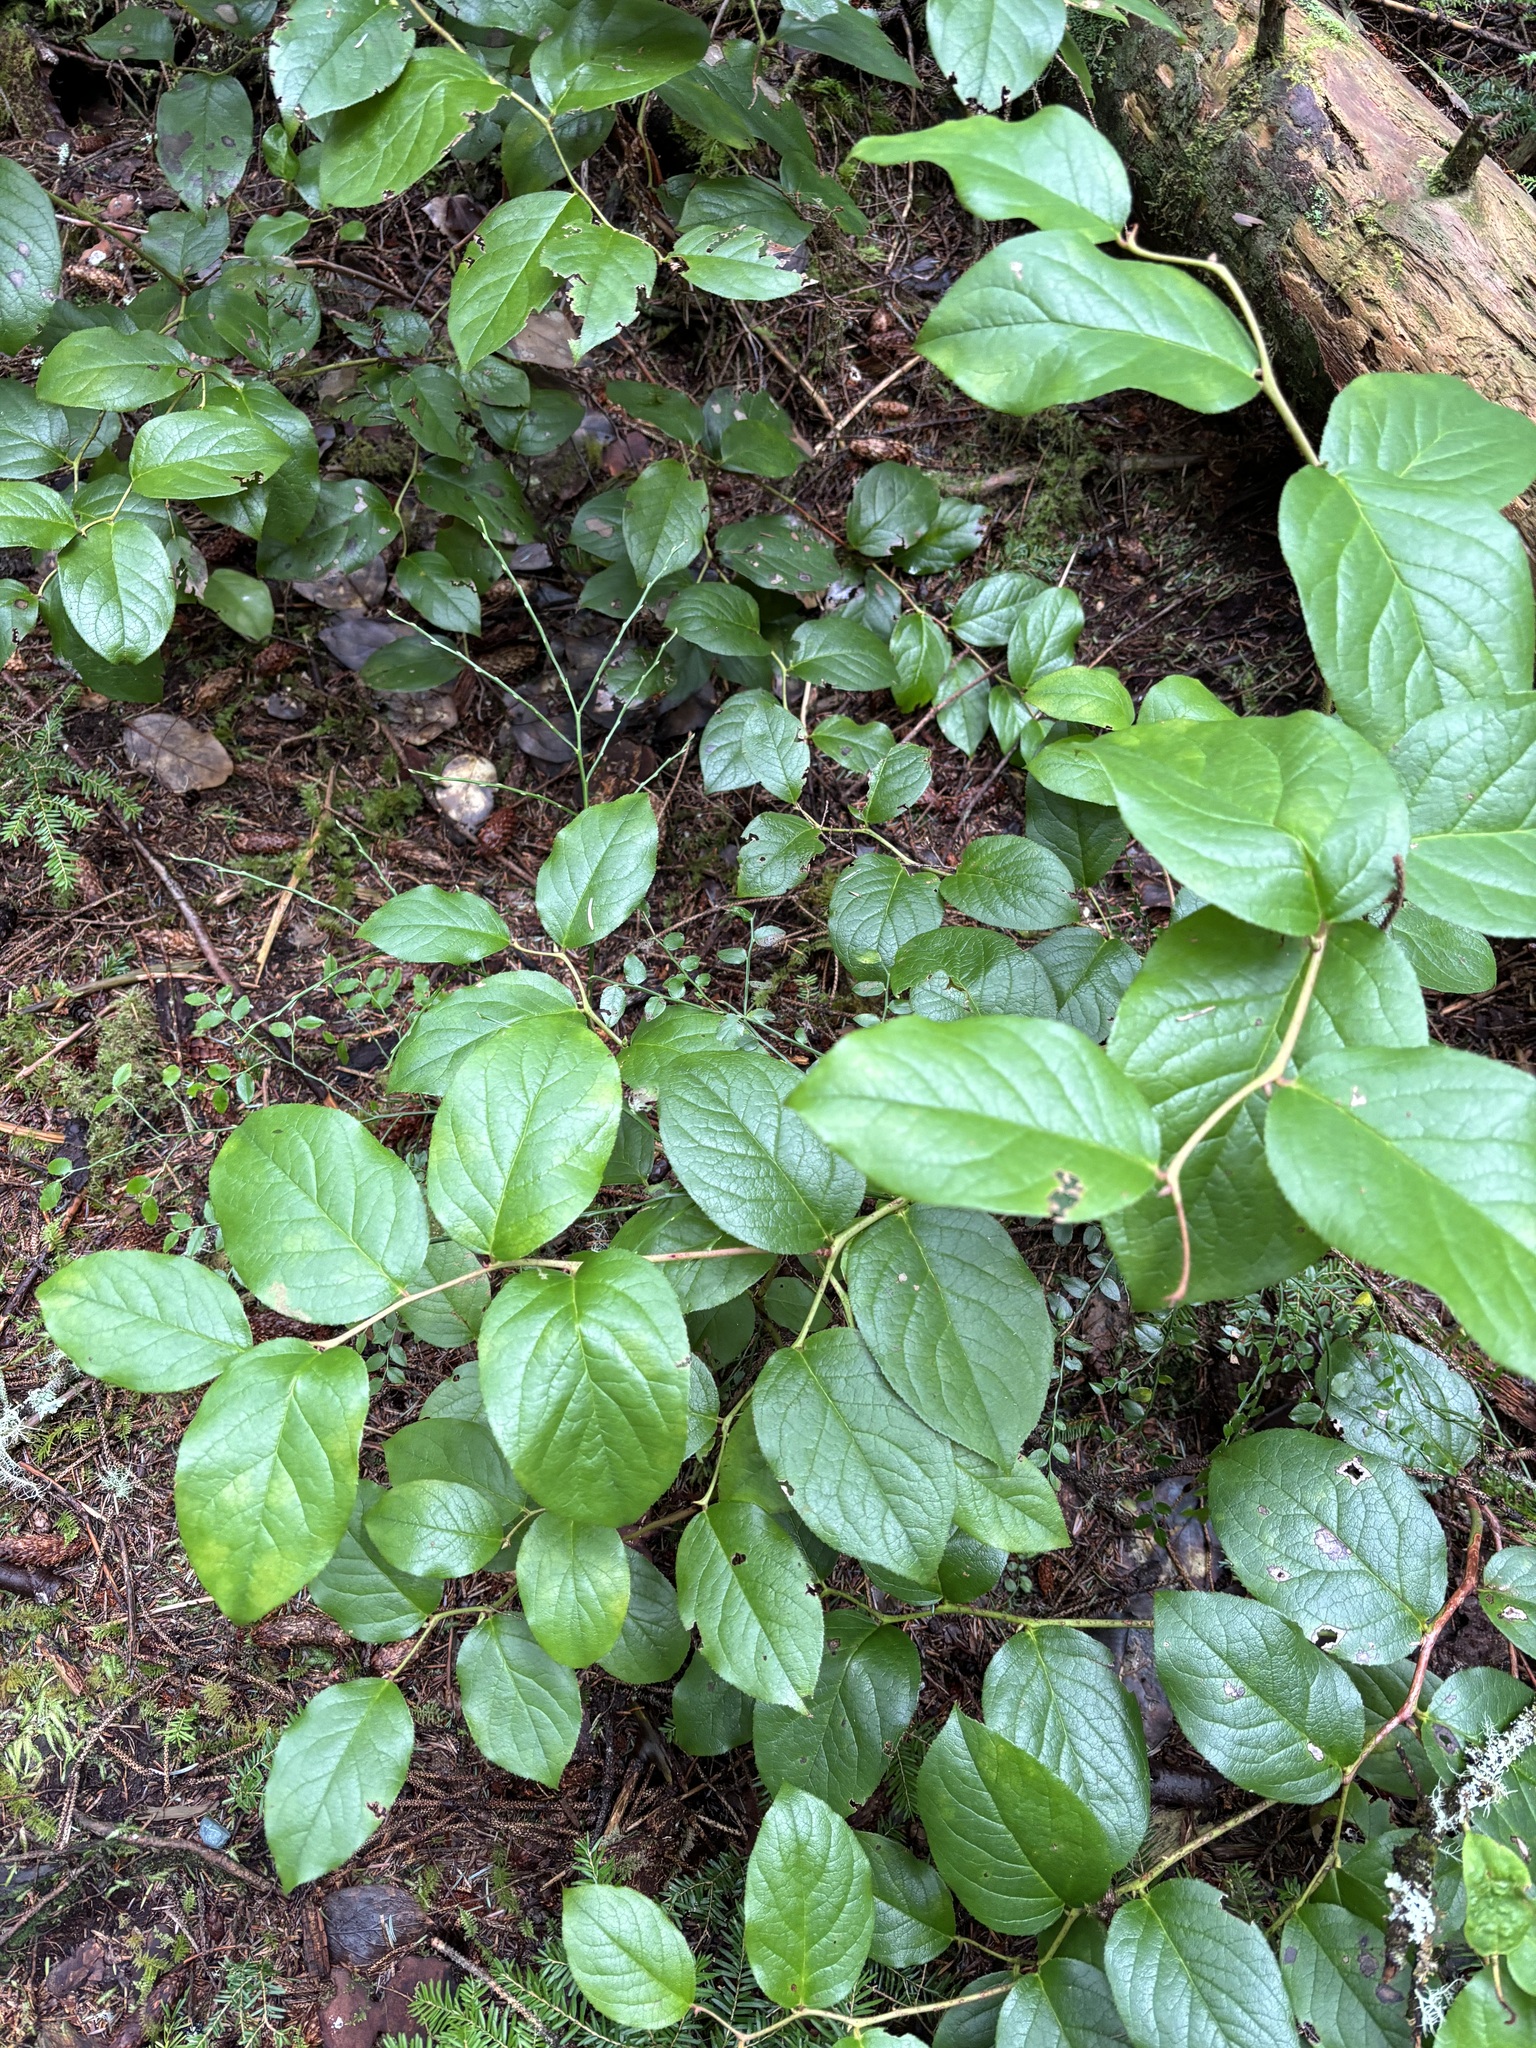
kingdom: Plantae
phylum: Tracheophyta
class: Magnoliopsida
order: Ericales
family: Ericaceae
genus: Gaultheria
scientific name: Gaultheria shallon
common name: Shallon
